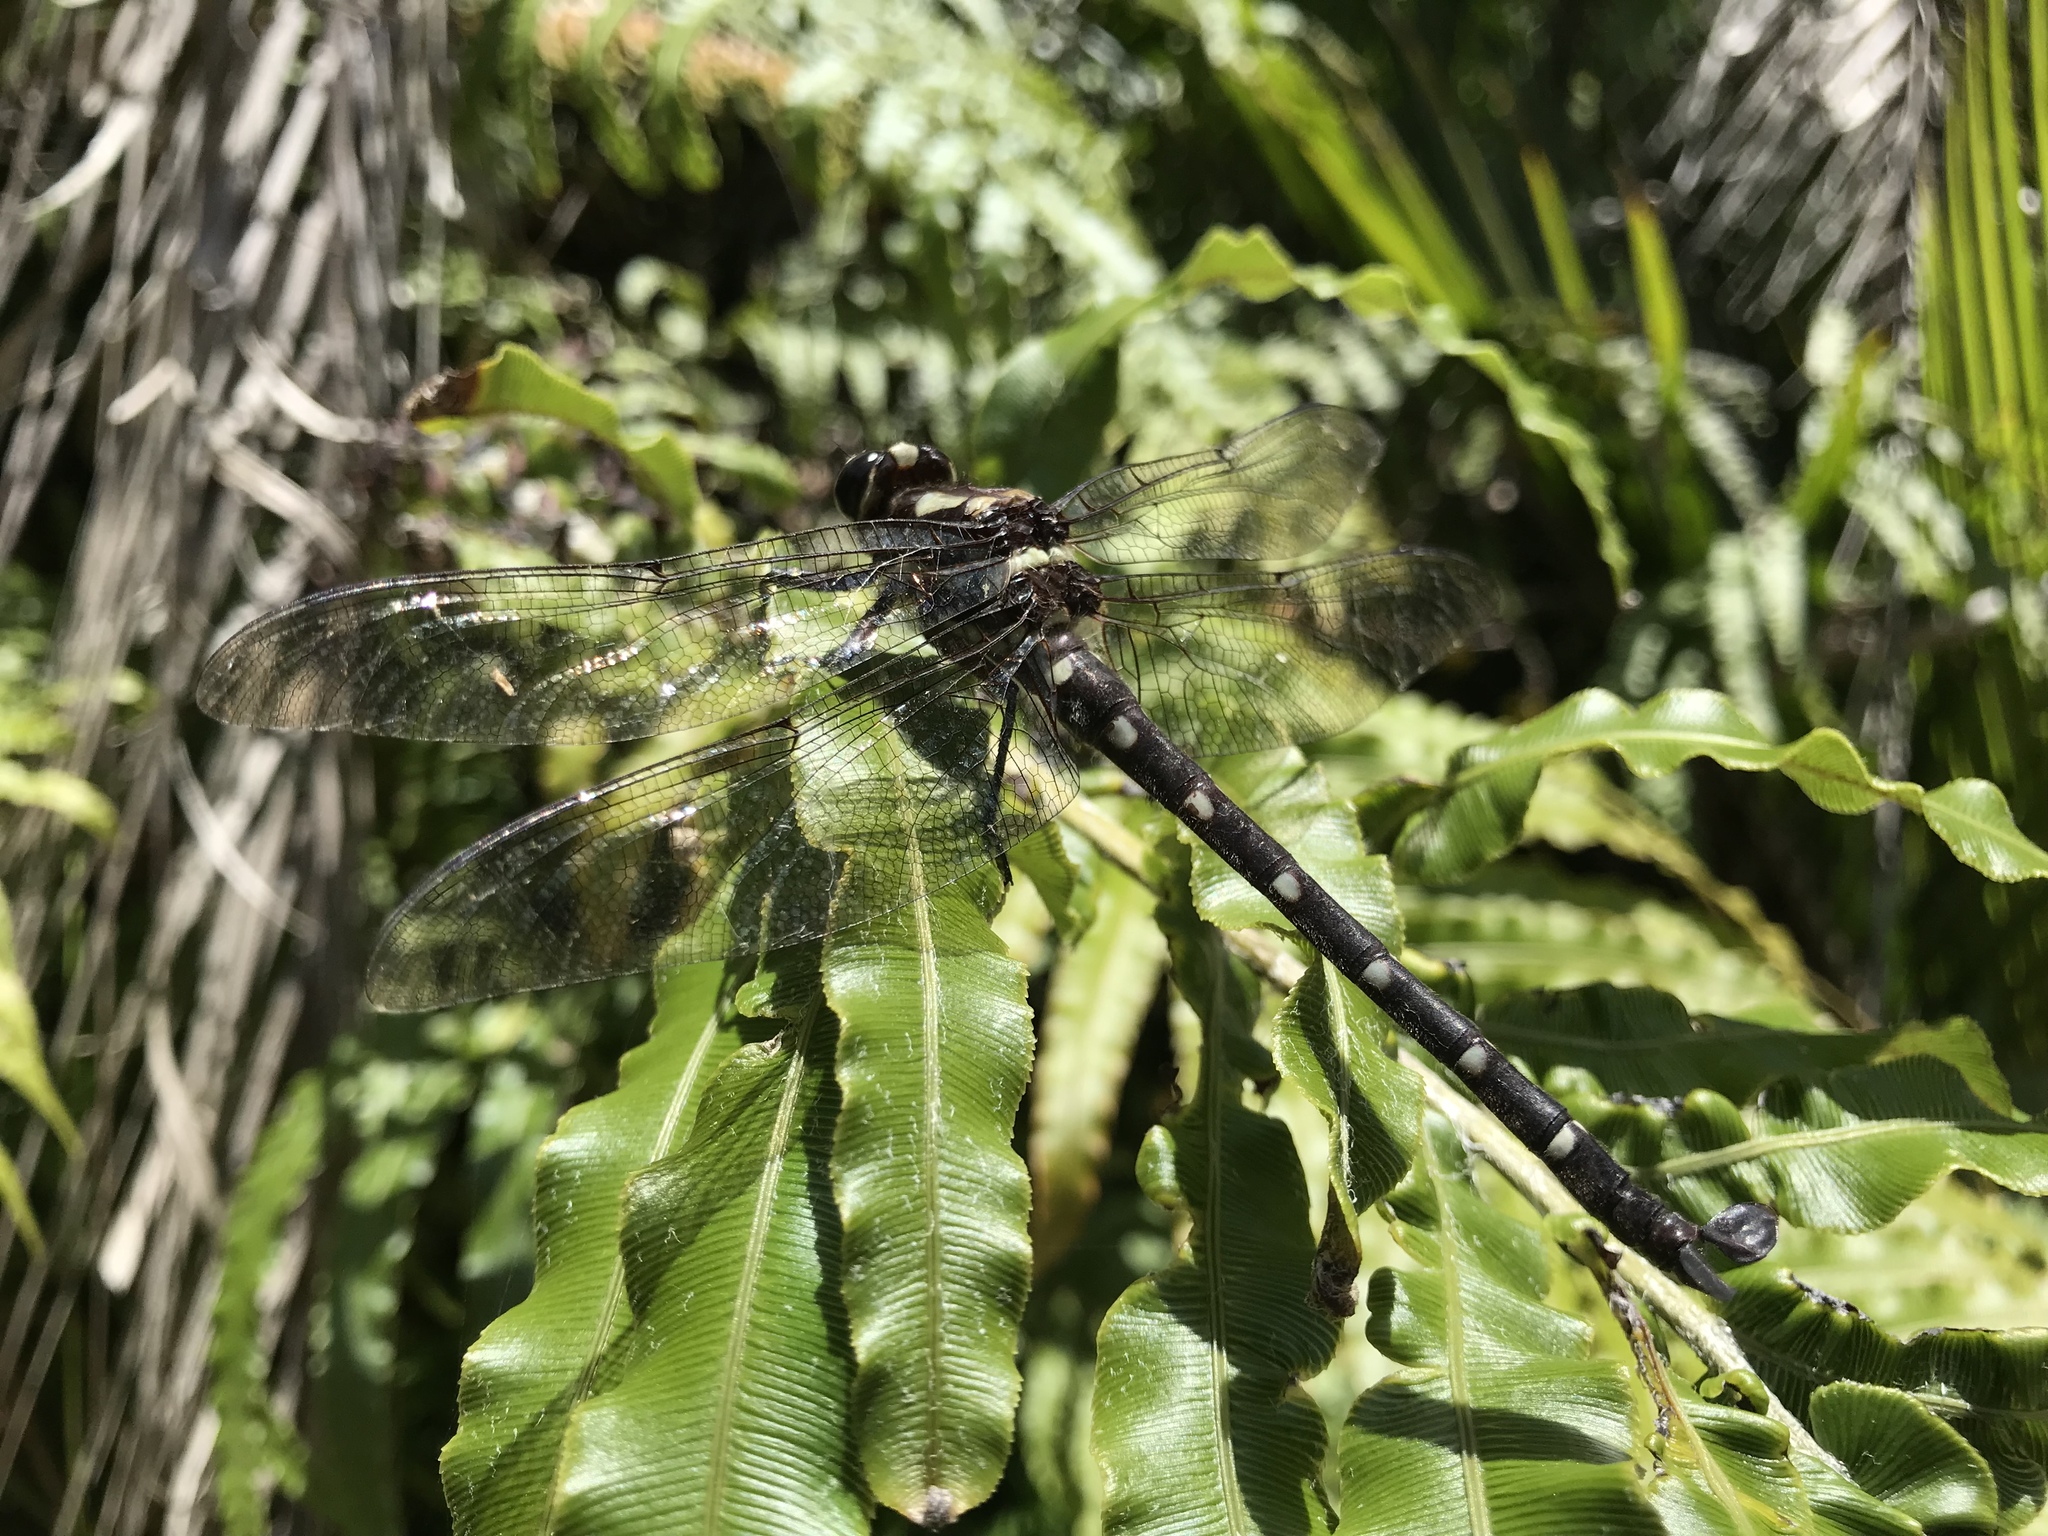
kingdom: Animalia
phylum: Arthropoda
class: Insecta
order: Odonata
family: Petaluridae
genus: Uropetala
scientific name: Uropetala carovei
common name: Bush giant dragonfly
